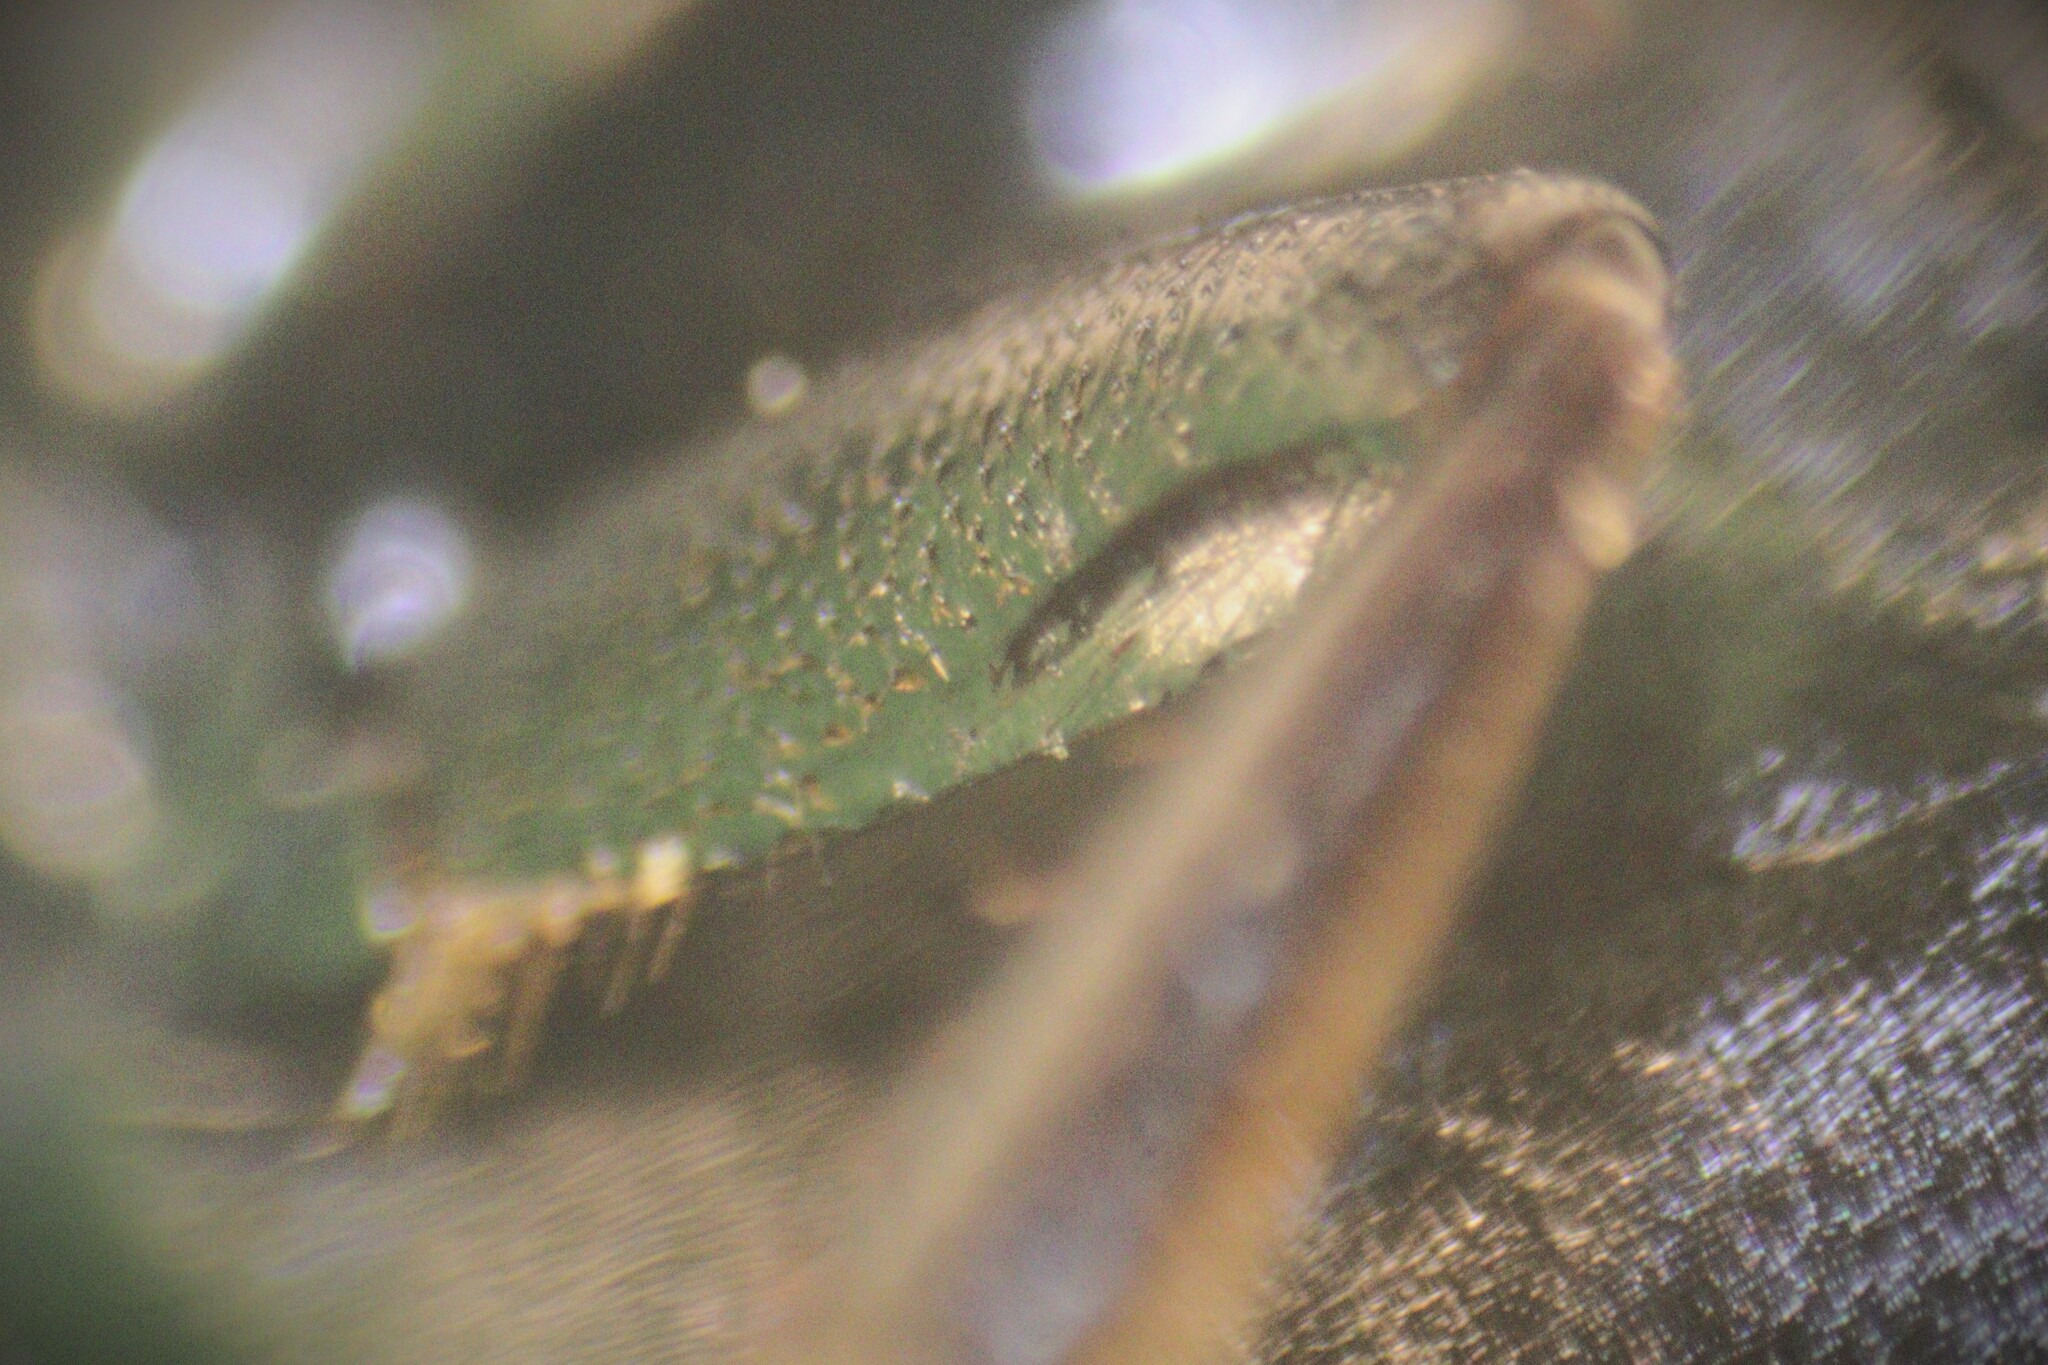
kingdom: Animalia
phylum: Arthropoda
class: Insecta
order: Coleoptera
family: Dytiscidae
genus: Colymbetes
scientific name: Colymbetes paykulli
